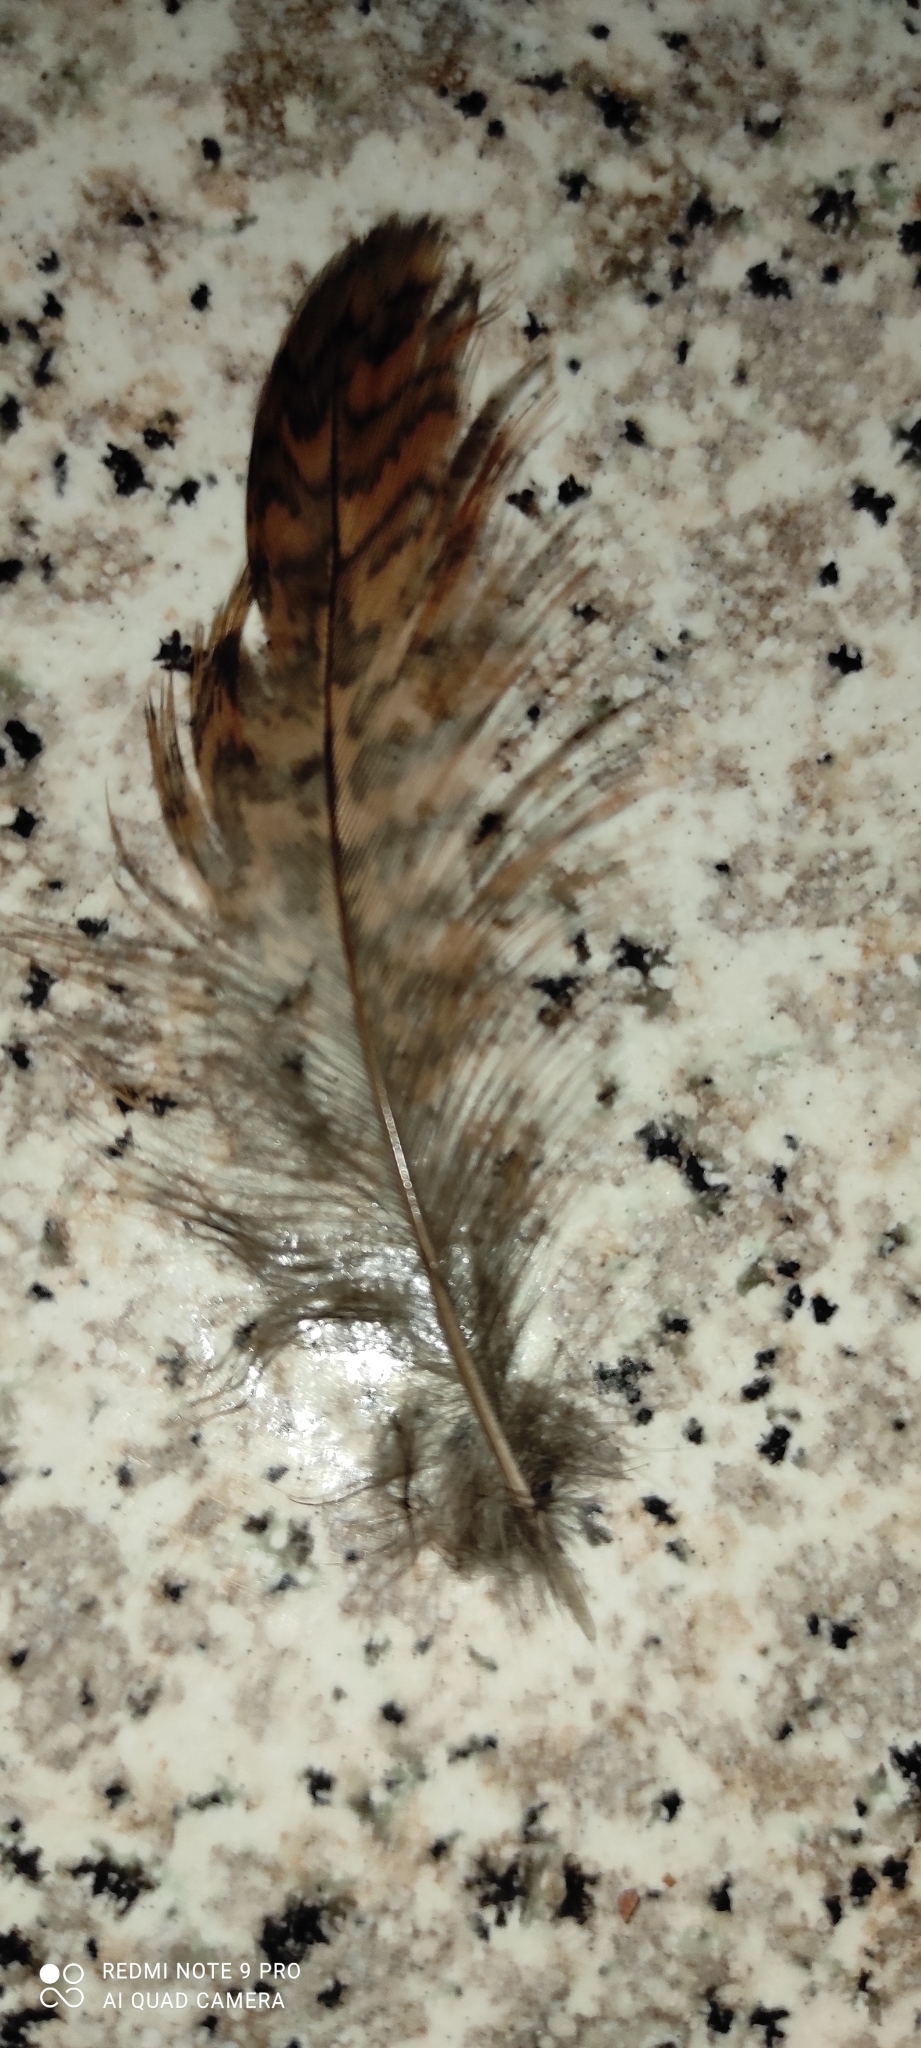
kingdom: Animalia
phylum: Chordata
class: Aves
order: Charadriiformes
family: Scolopacidae
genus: Scolopax
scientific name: Scolopax rusticola
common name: Eurasian woodcock
